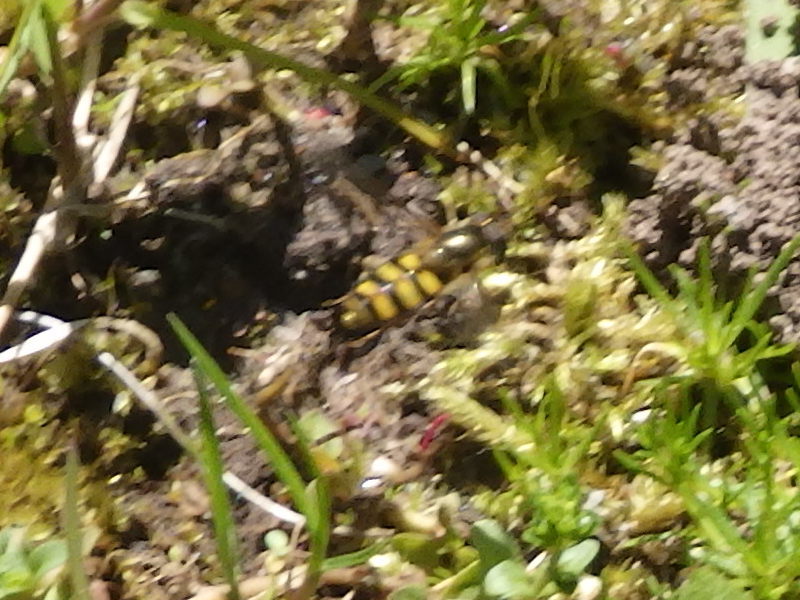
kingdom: Animalia
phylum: Arthropoda
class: Insecta
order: Diptera
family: Syrphidae
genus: Eupeodes
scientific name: Eupeodes
